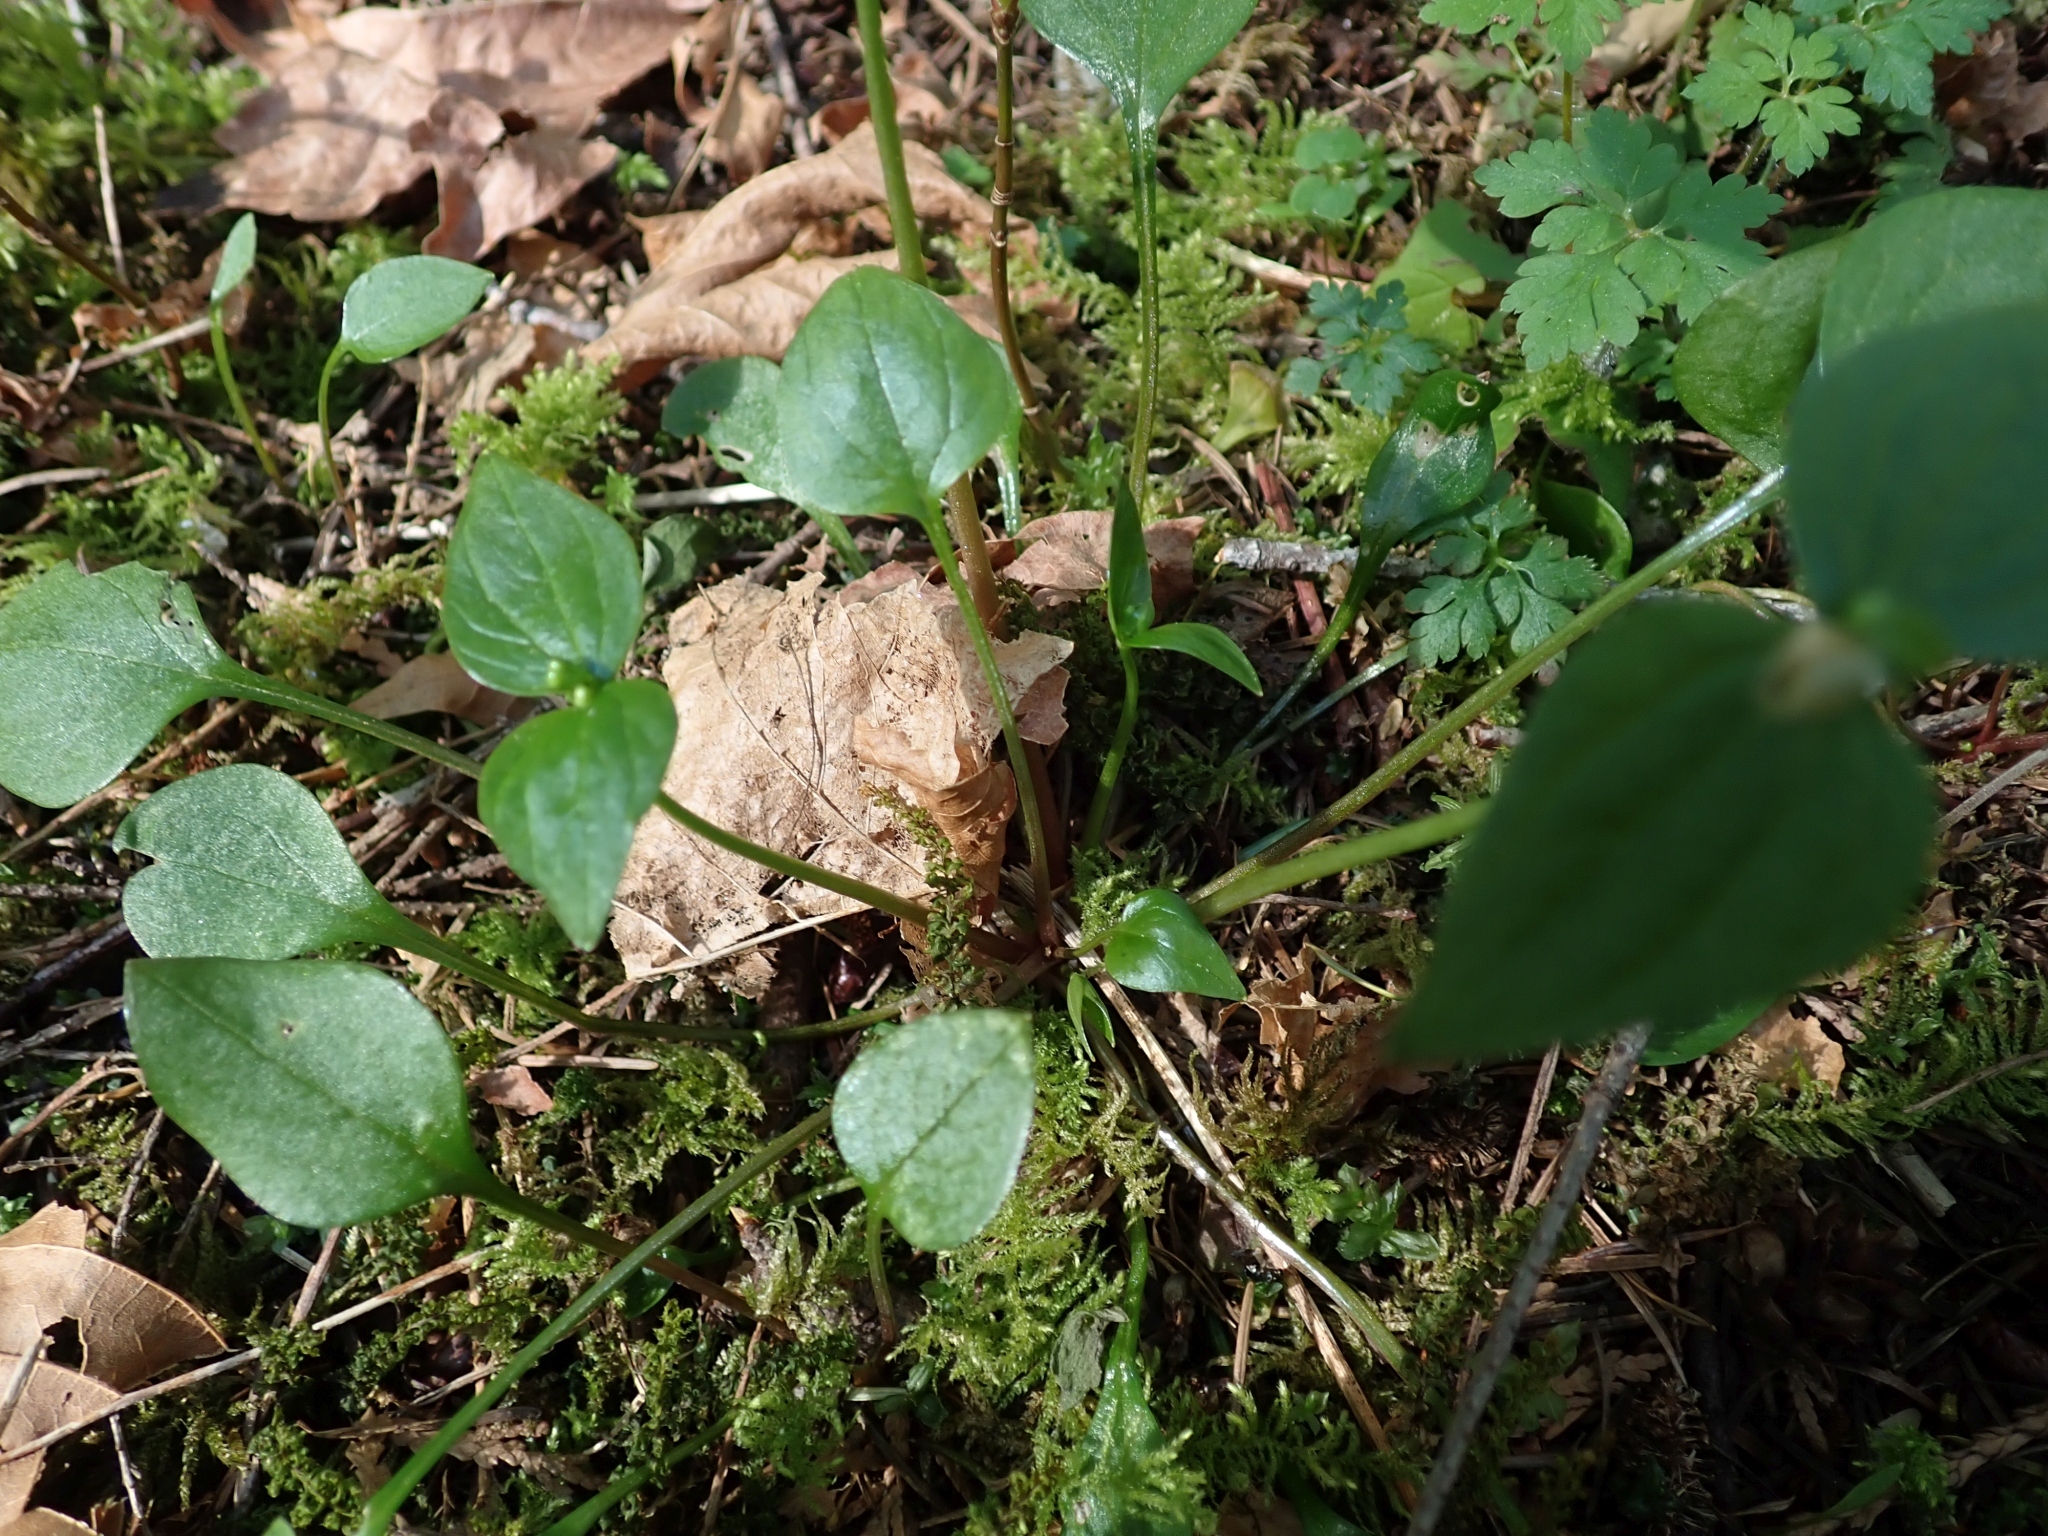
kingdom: Plantae
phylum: Tracheophyta
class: Magnoliopsida
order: Caryophyllales
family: Montiaceae
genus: Claytonia
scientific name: Claytonia sibirica
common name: Pink purslane
